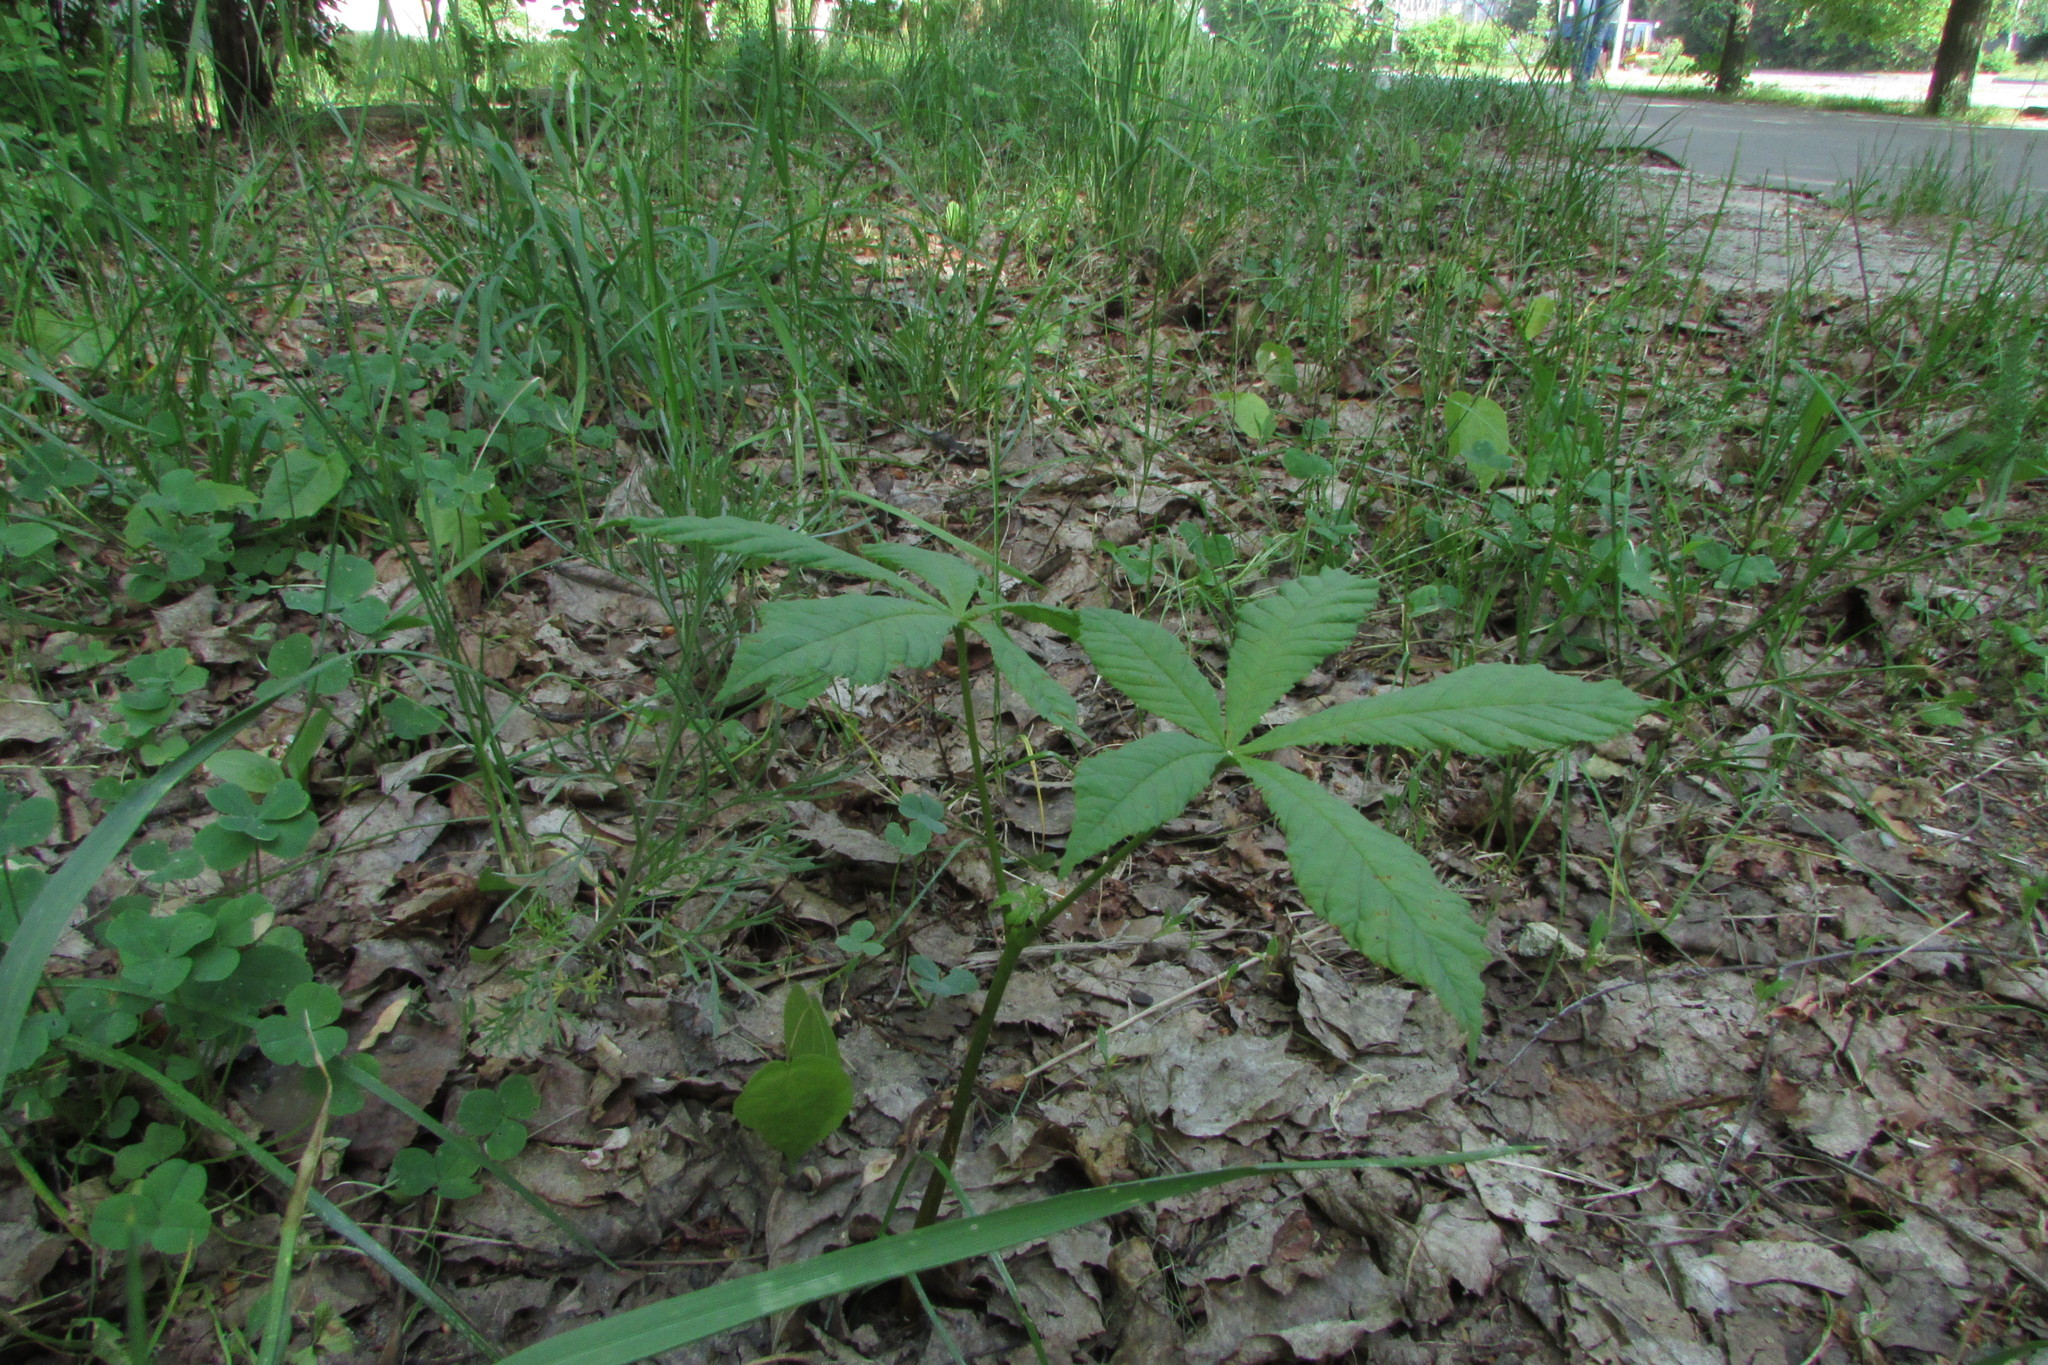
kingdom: Plantae
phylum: Tracheophyta
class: Magnoliopsida
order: Sapindales
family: Sapindaceae
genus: Aesculus
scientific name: Aesculus hippocastanum
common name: Horse-chestnut
